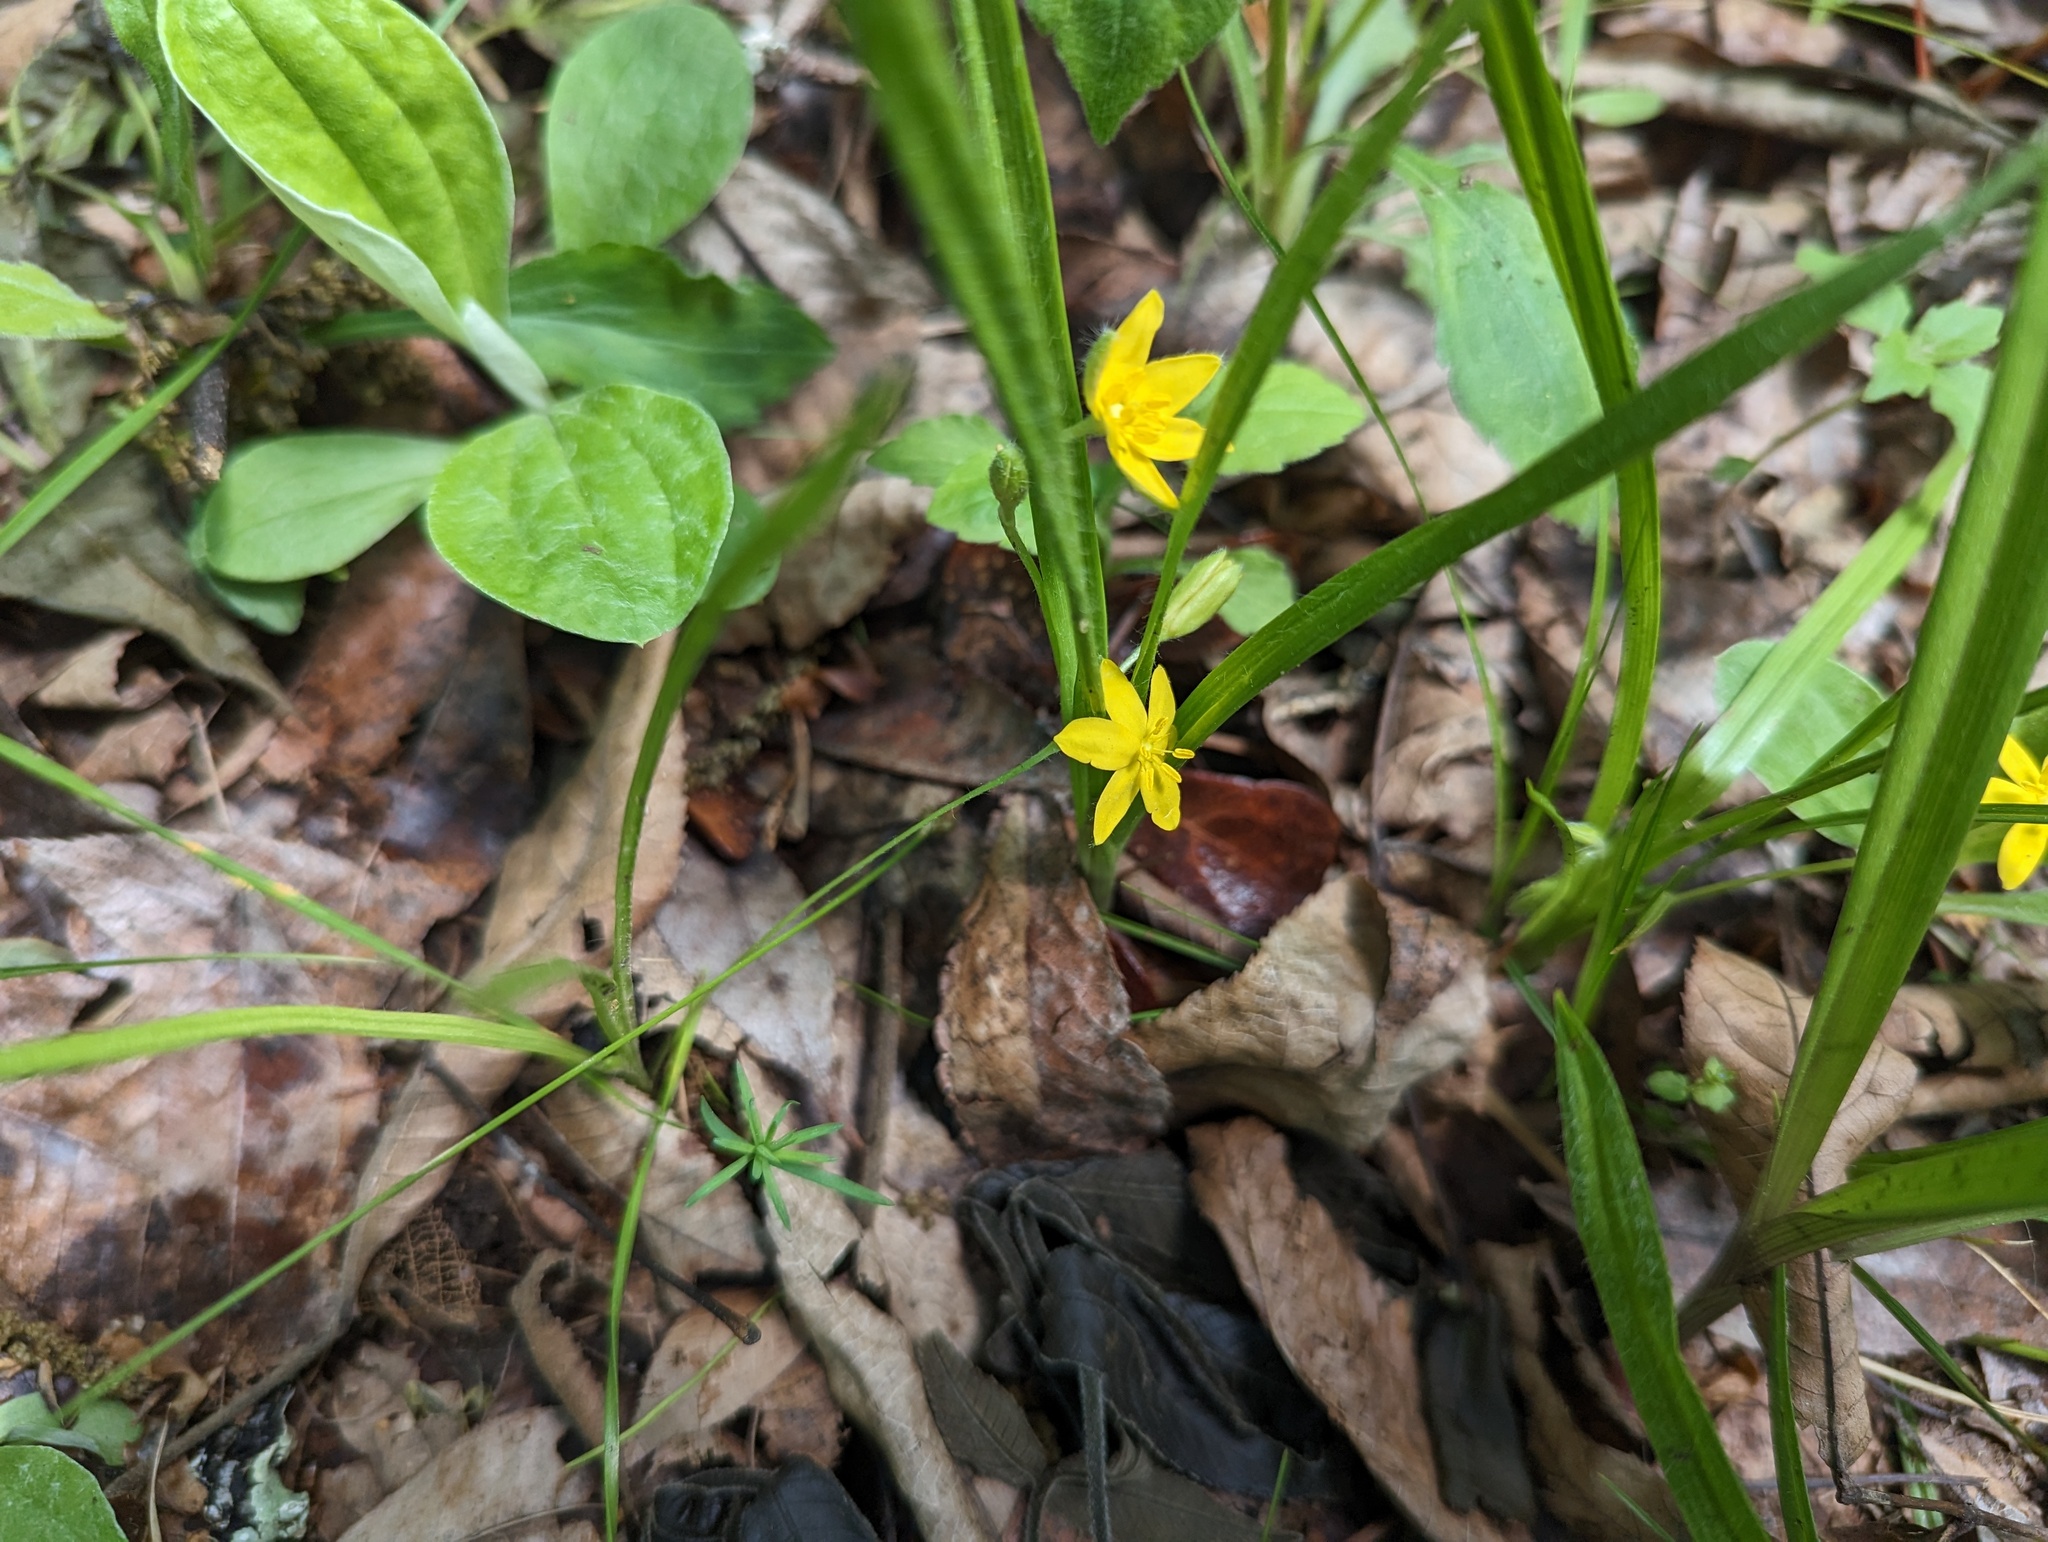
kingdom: Plantae
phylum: Tracheophyta
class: Liliopsida
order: Asparagales
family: Hypoxidaceae
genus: Hypoxis
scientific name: Hypoxis hirsuta
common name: Common goldstar
